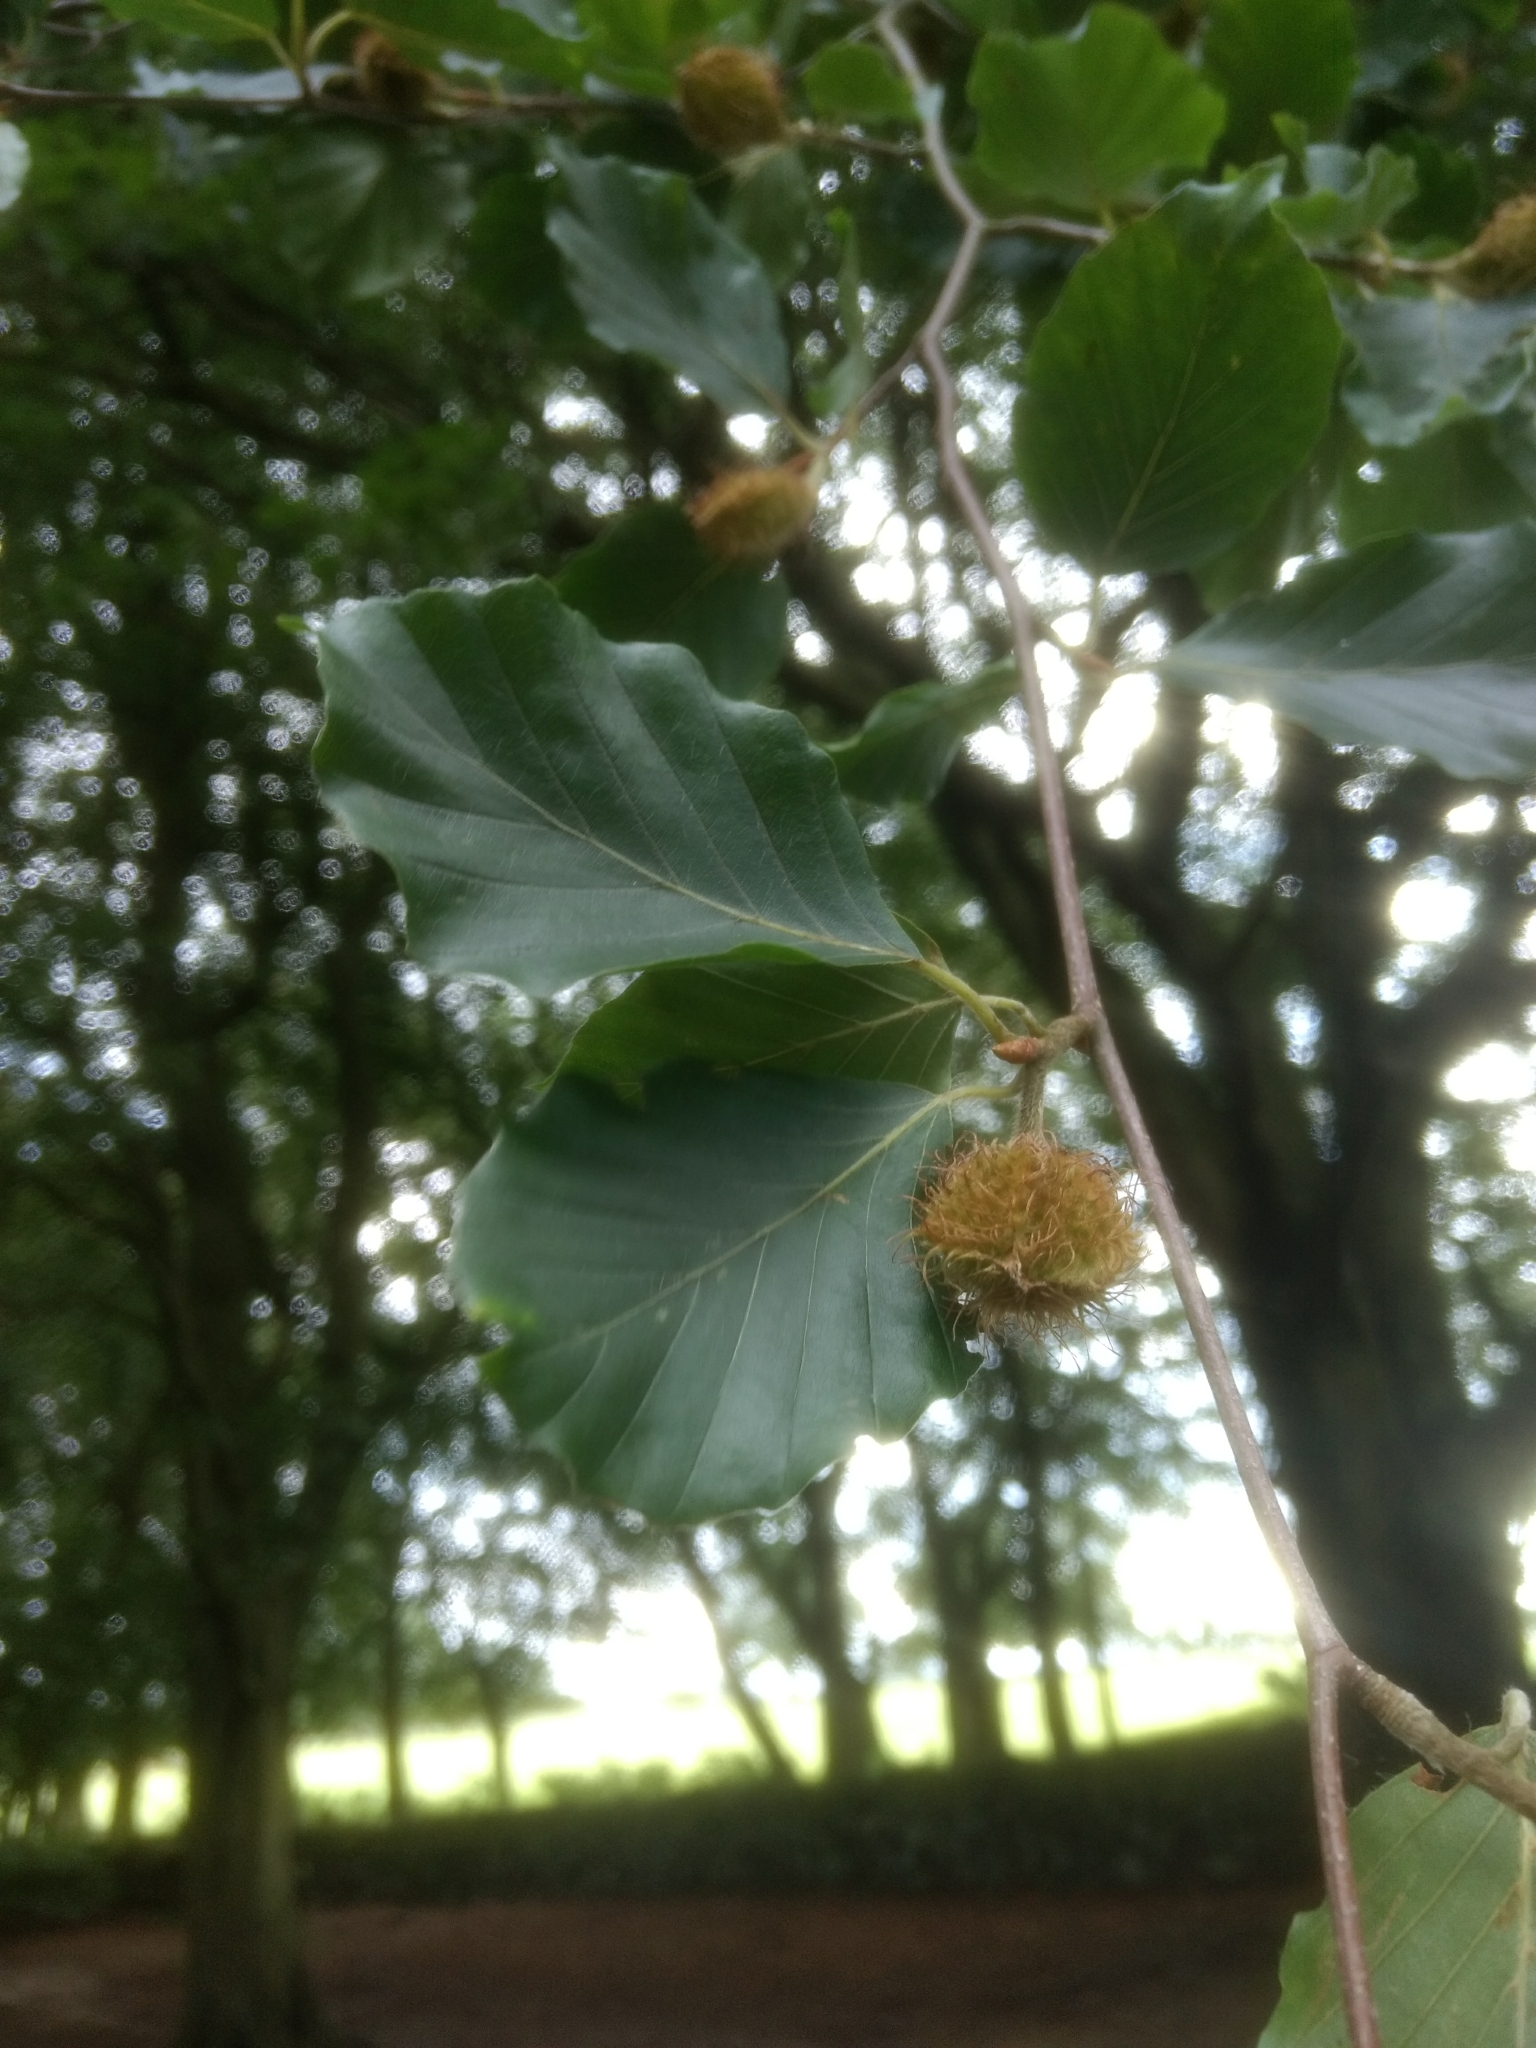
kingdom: Plantae
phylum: Tracheophyta
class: Magnoliopsida
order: Fagales
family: Fagaceae
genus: Fagus
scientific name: Fagus sylvatica
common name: Beech
